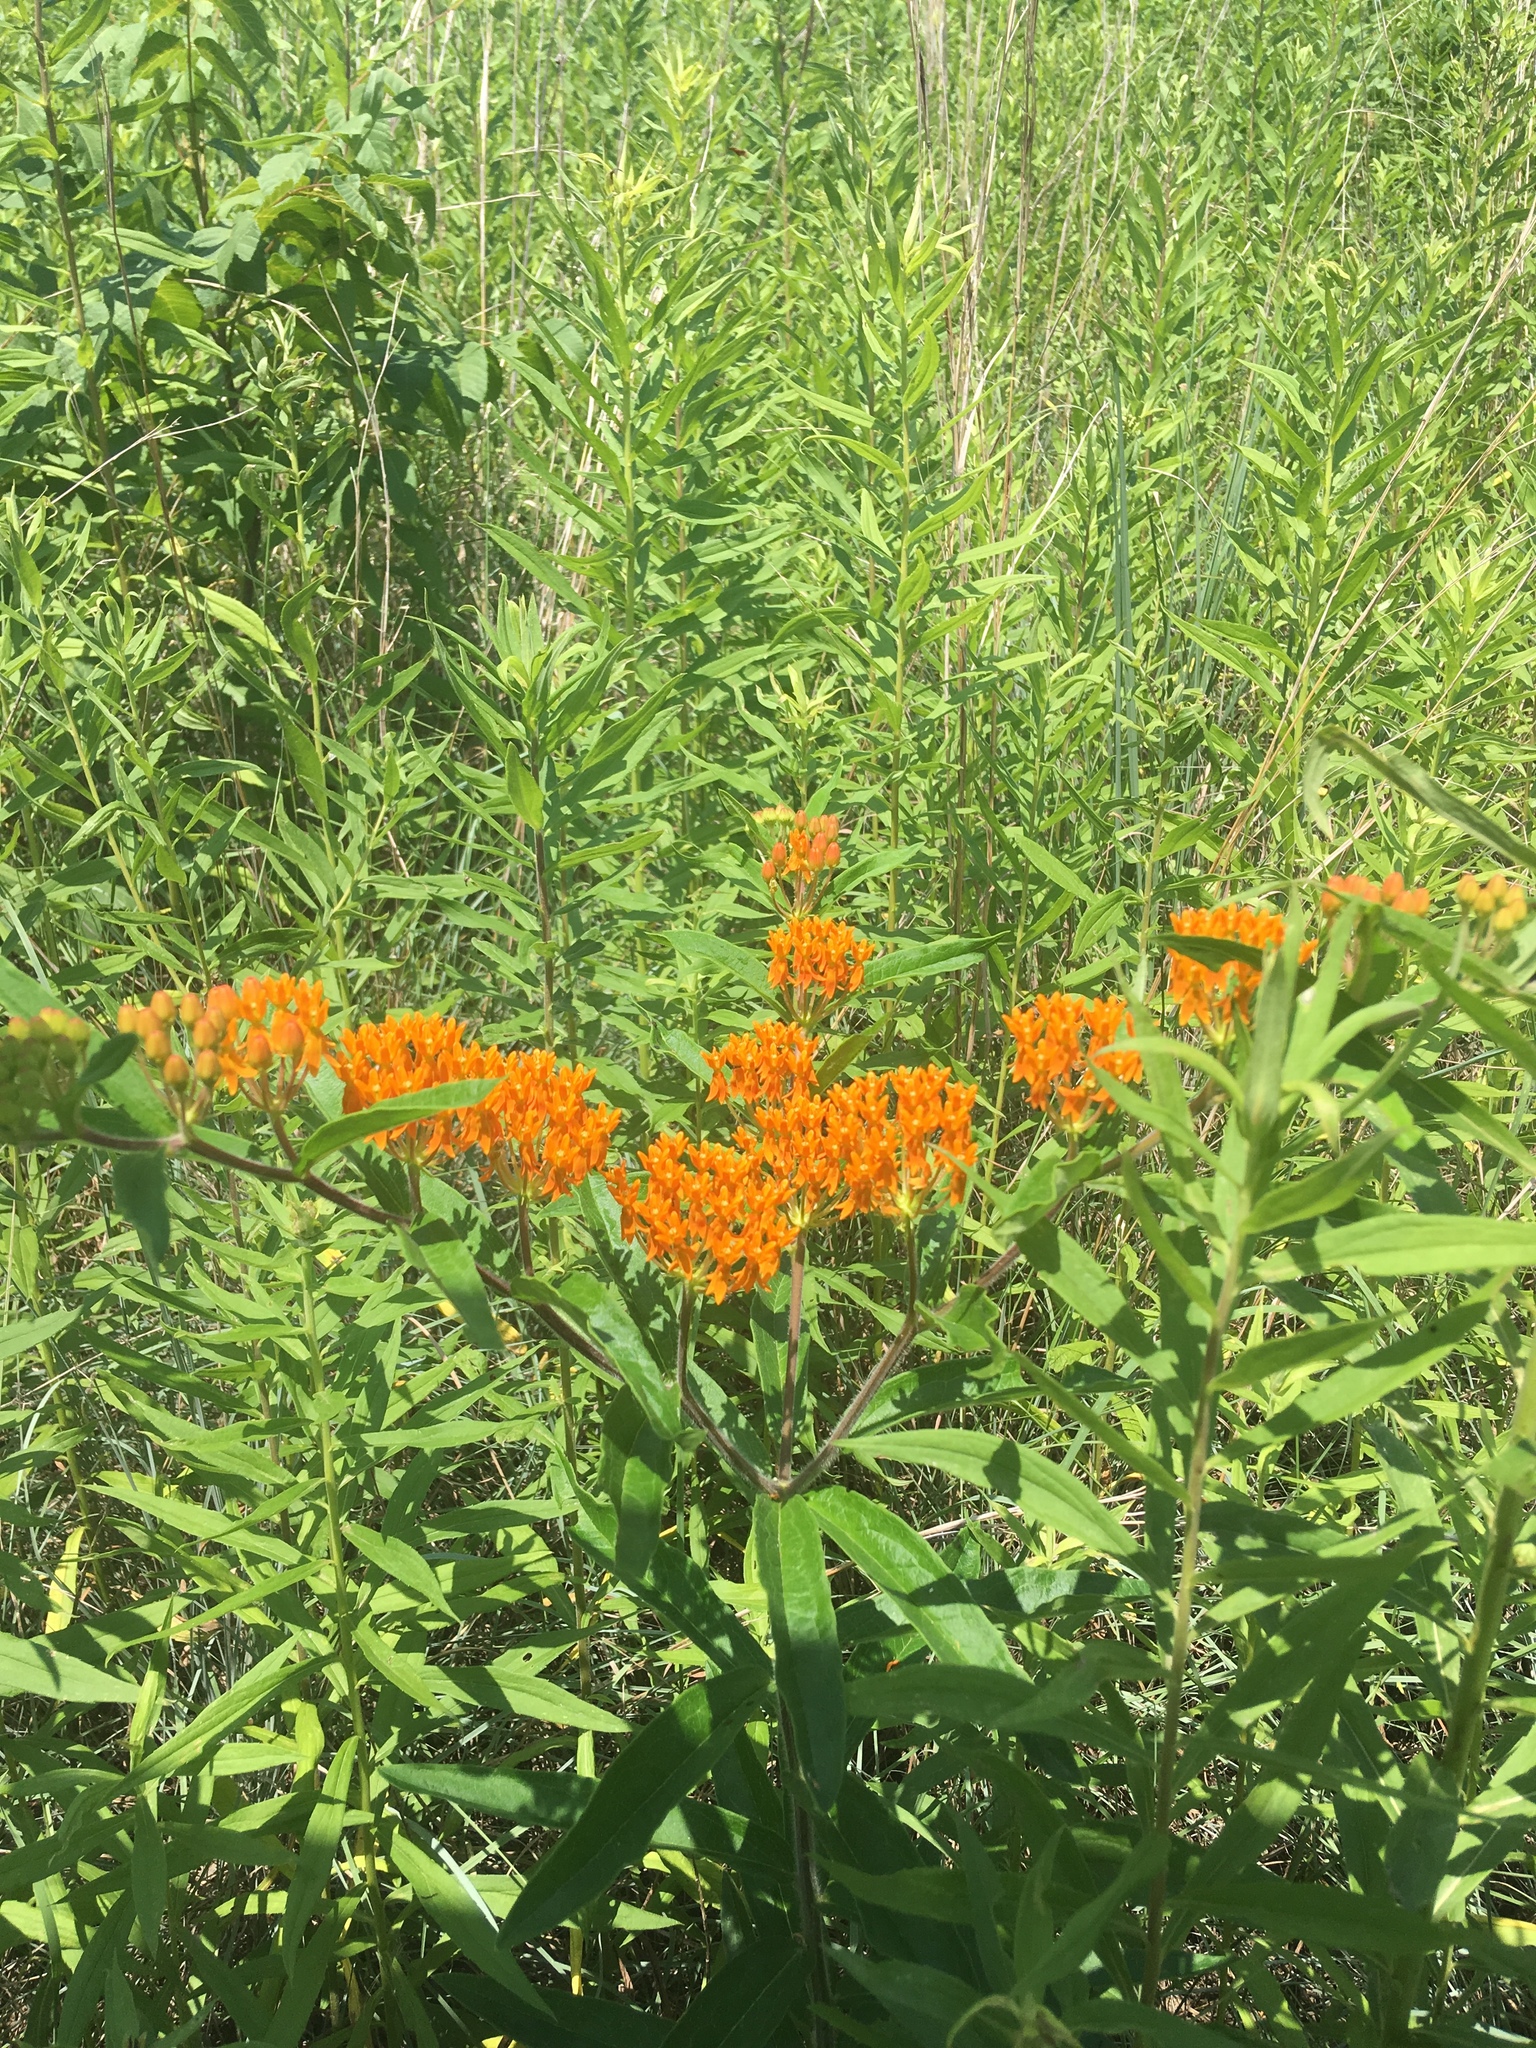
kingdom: Plantae
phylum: Tracheophyta
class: Magnoliopsida
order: Gentianales
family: Apocynaceae
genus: Asclepias
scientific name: Asclepias tuberosa
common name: Butterfly milkweed
